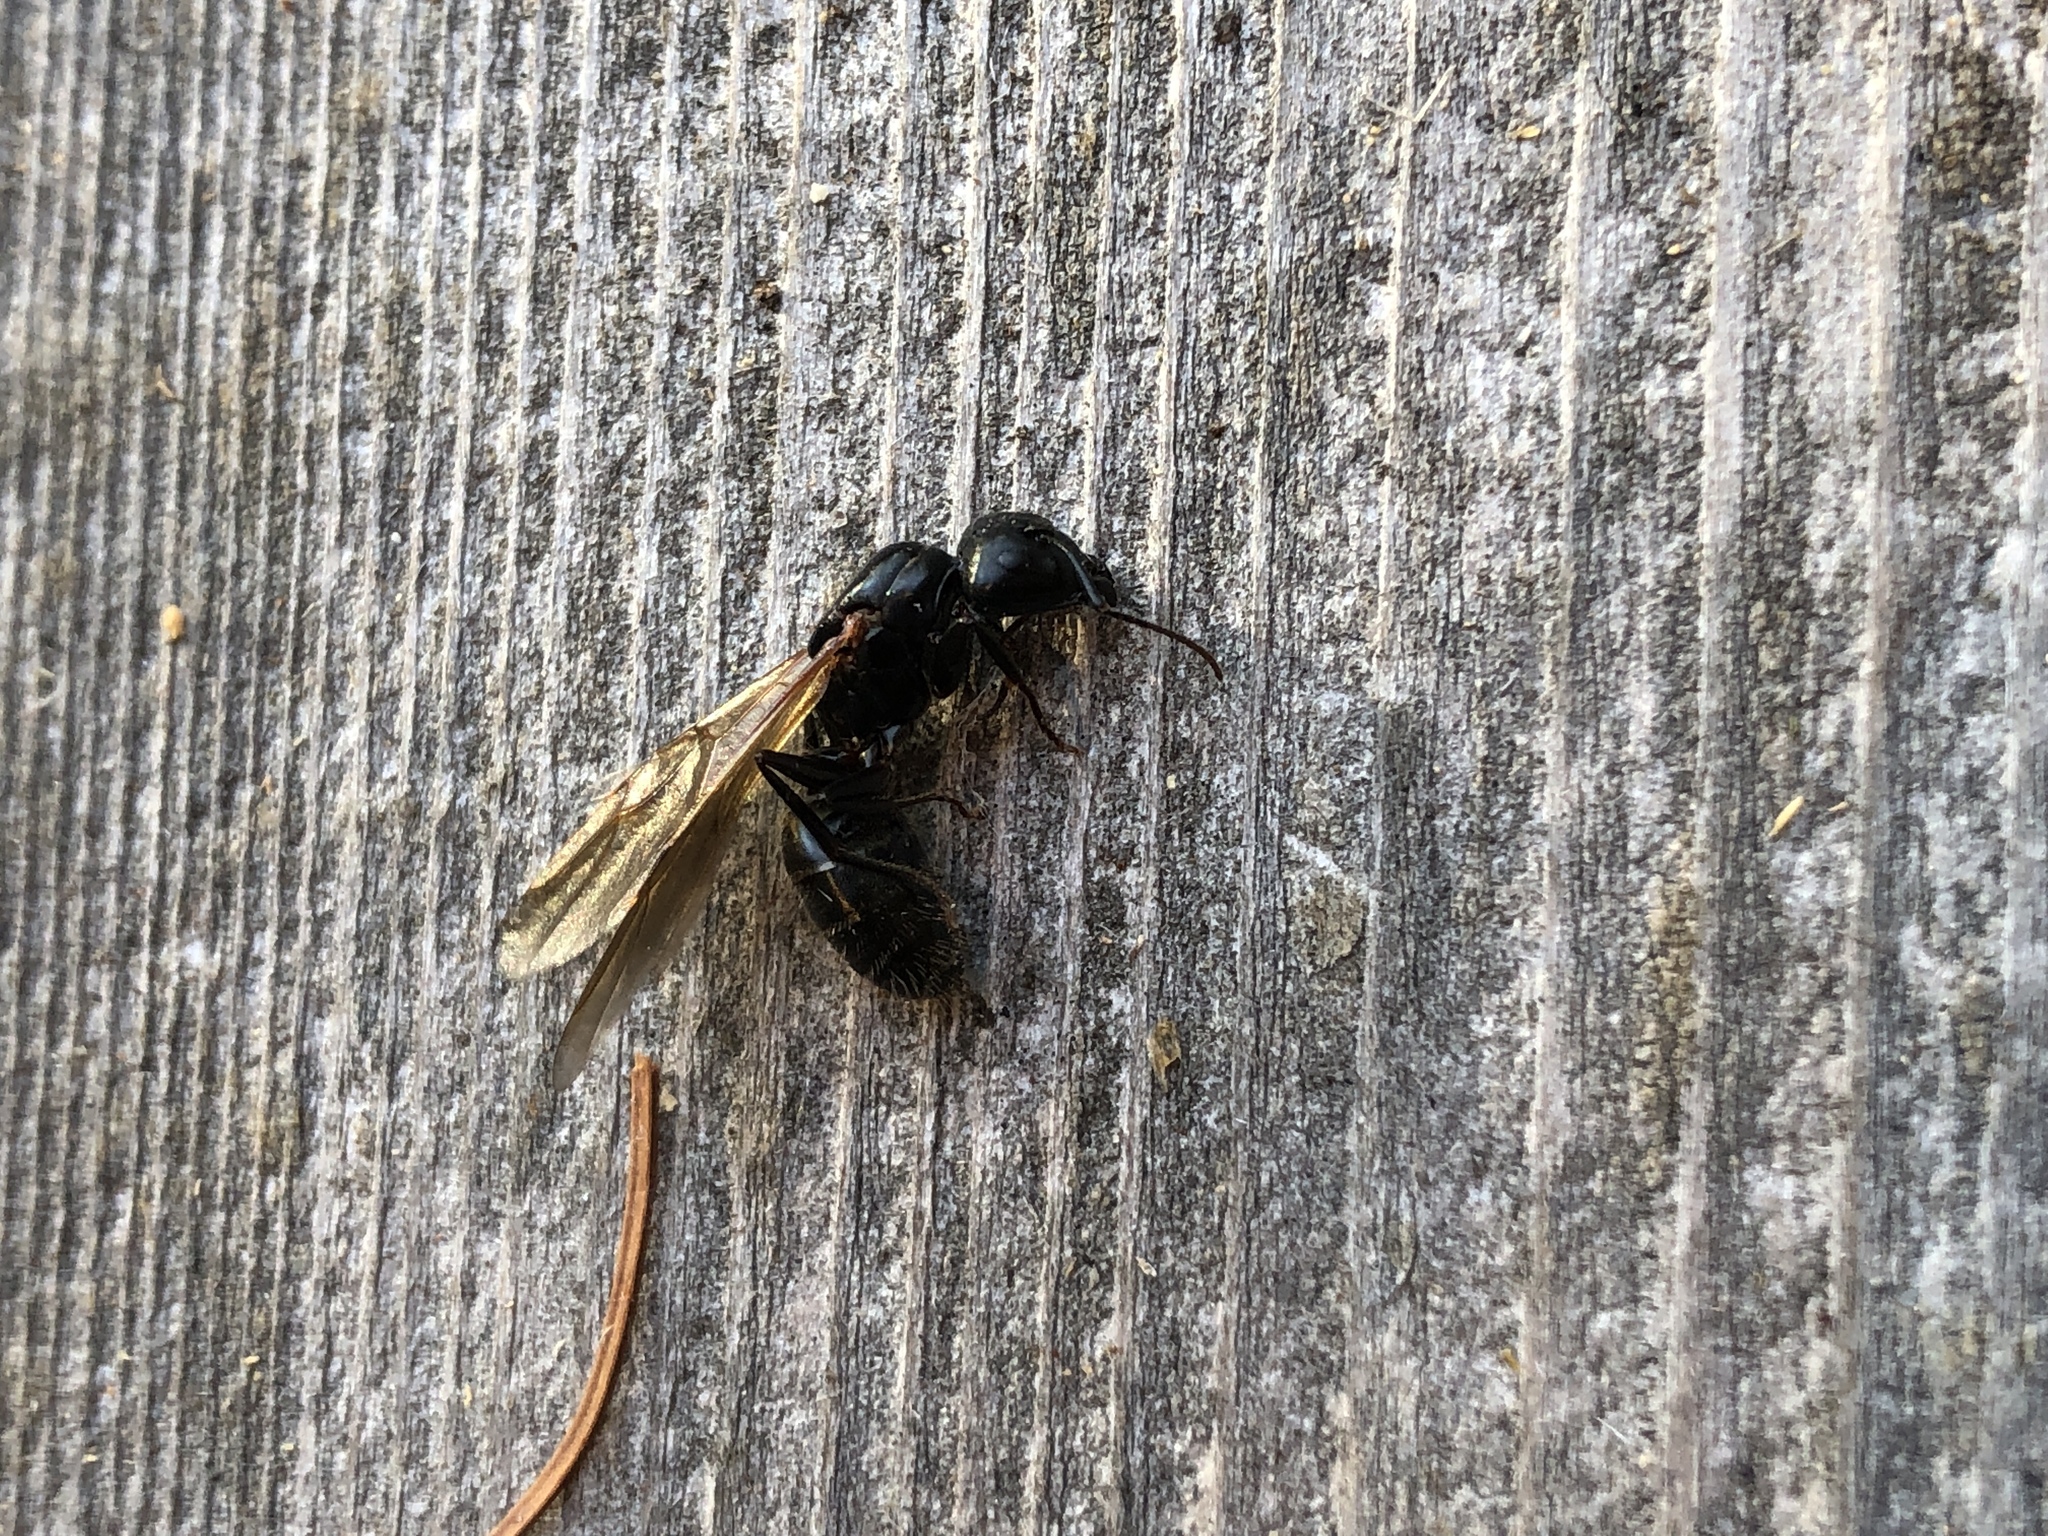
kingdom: Animalia
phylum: Arthropoda
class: Insecta
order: Hymenoptera
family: Formicidae
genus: Camponotus
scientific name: Camponotus pennsylvanicus
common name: Black carpenter ant
